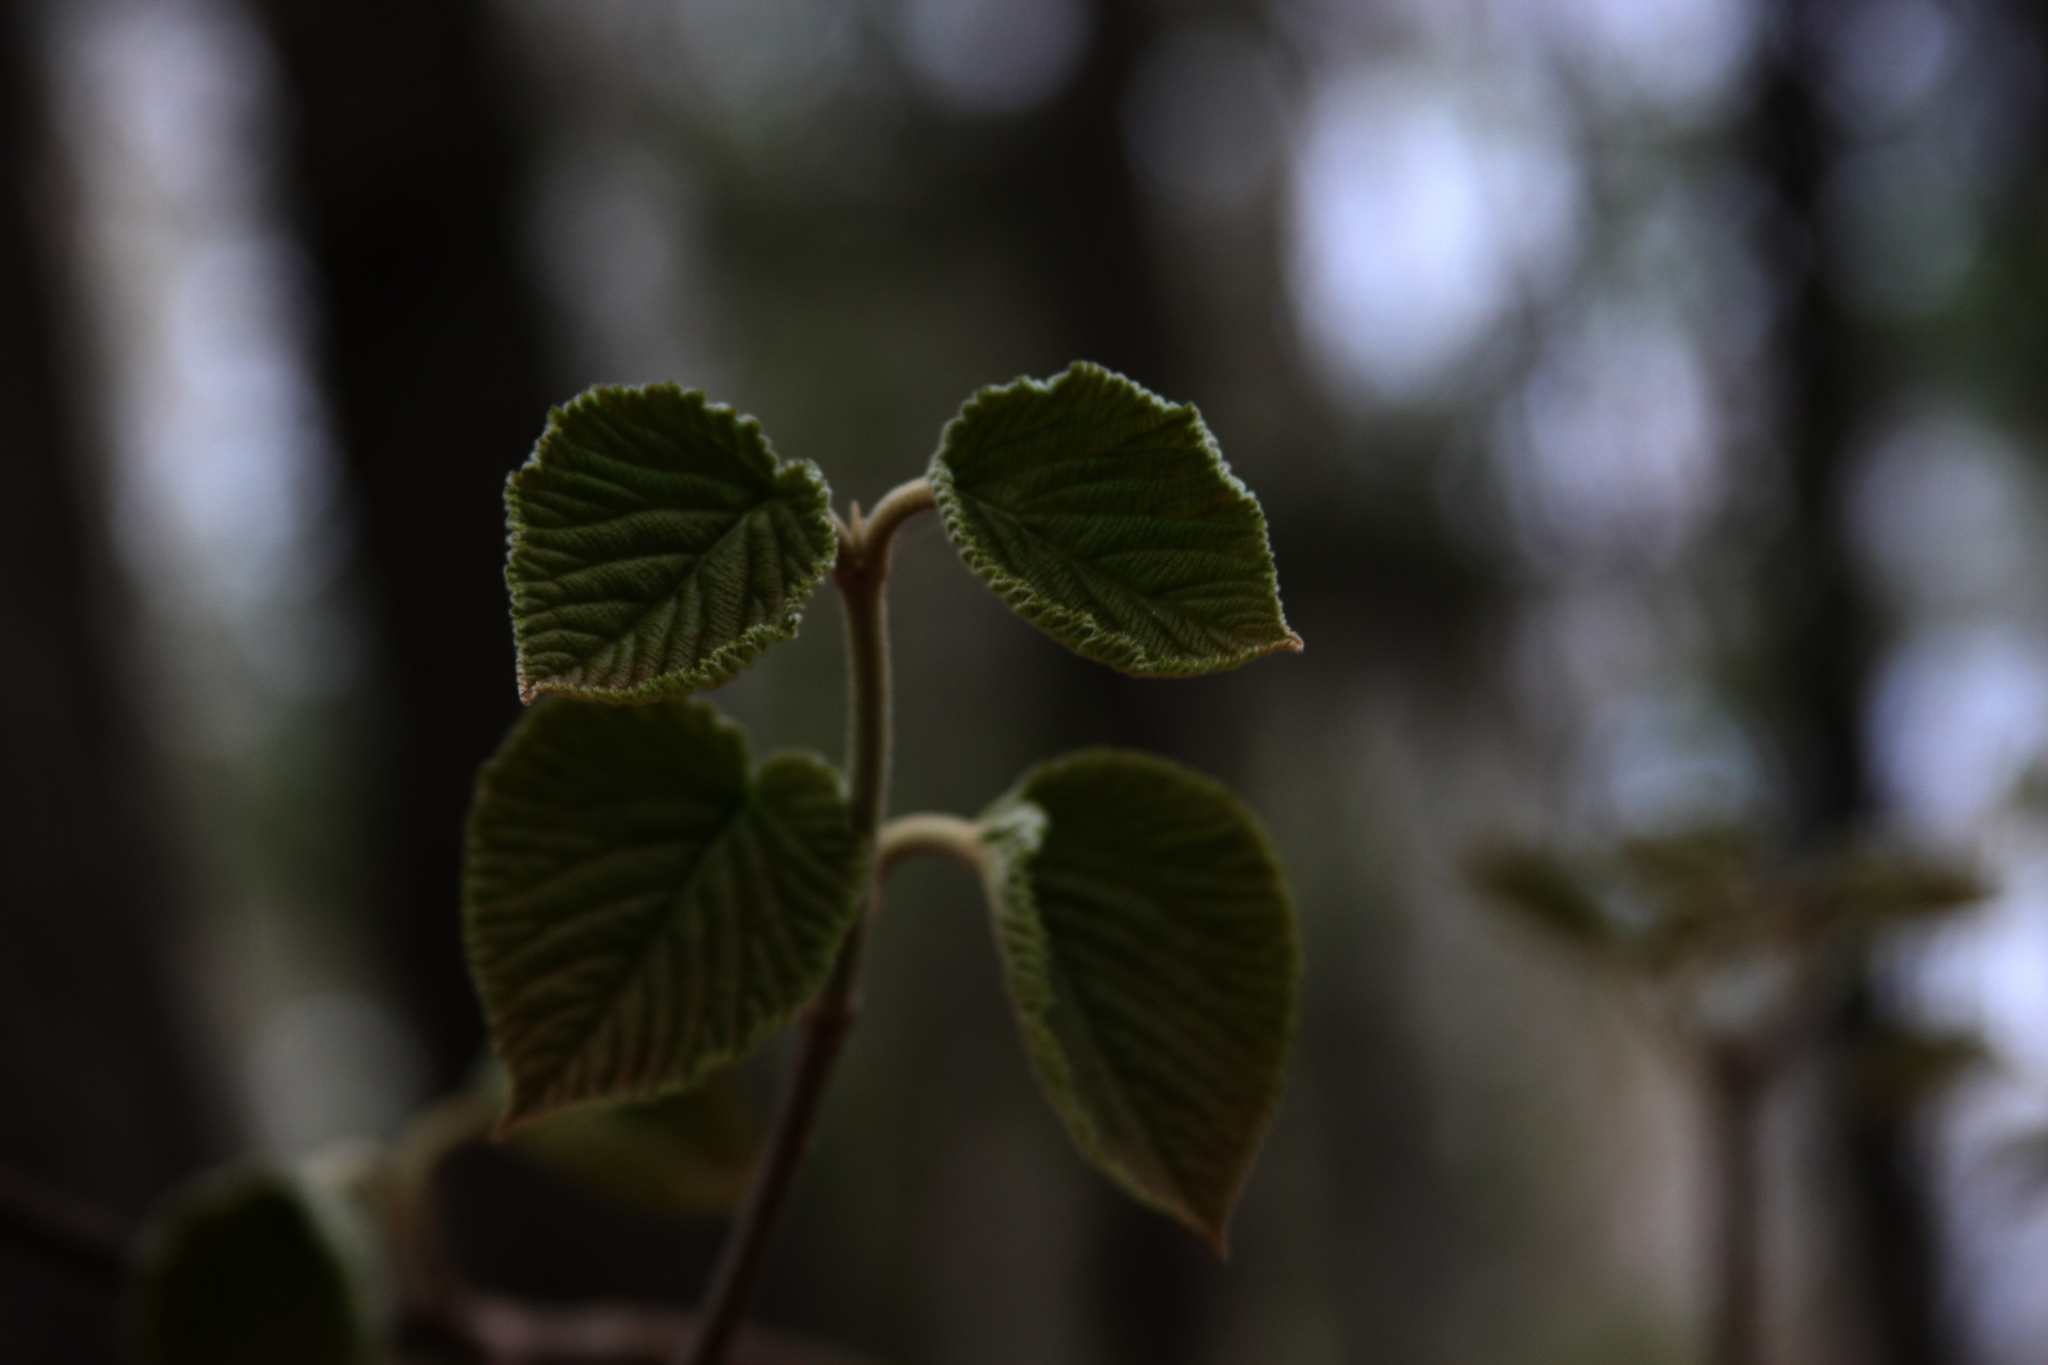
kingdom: Plantae
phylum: Tracheophyta
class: Magnoliopsida
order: Dipsacales
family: Viburnaceae
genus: Viburnum
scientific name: Viburnum lantanoides
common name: Hobblebush
